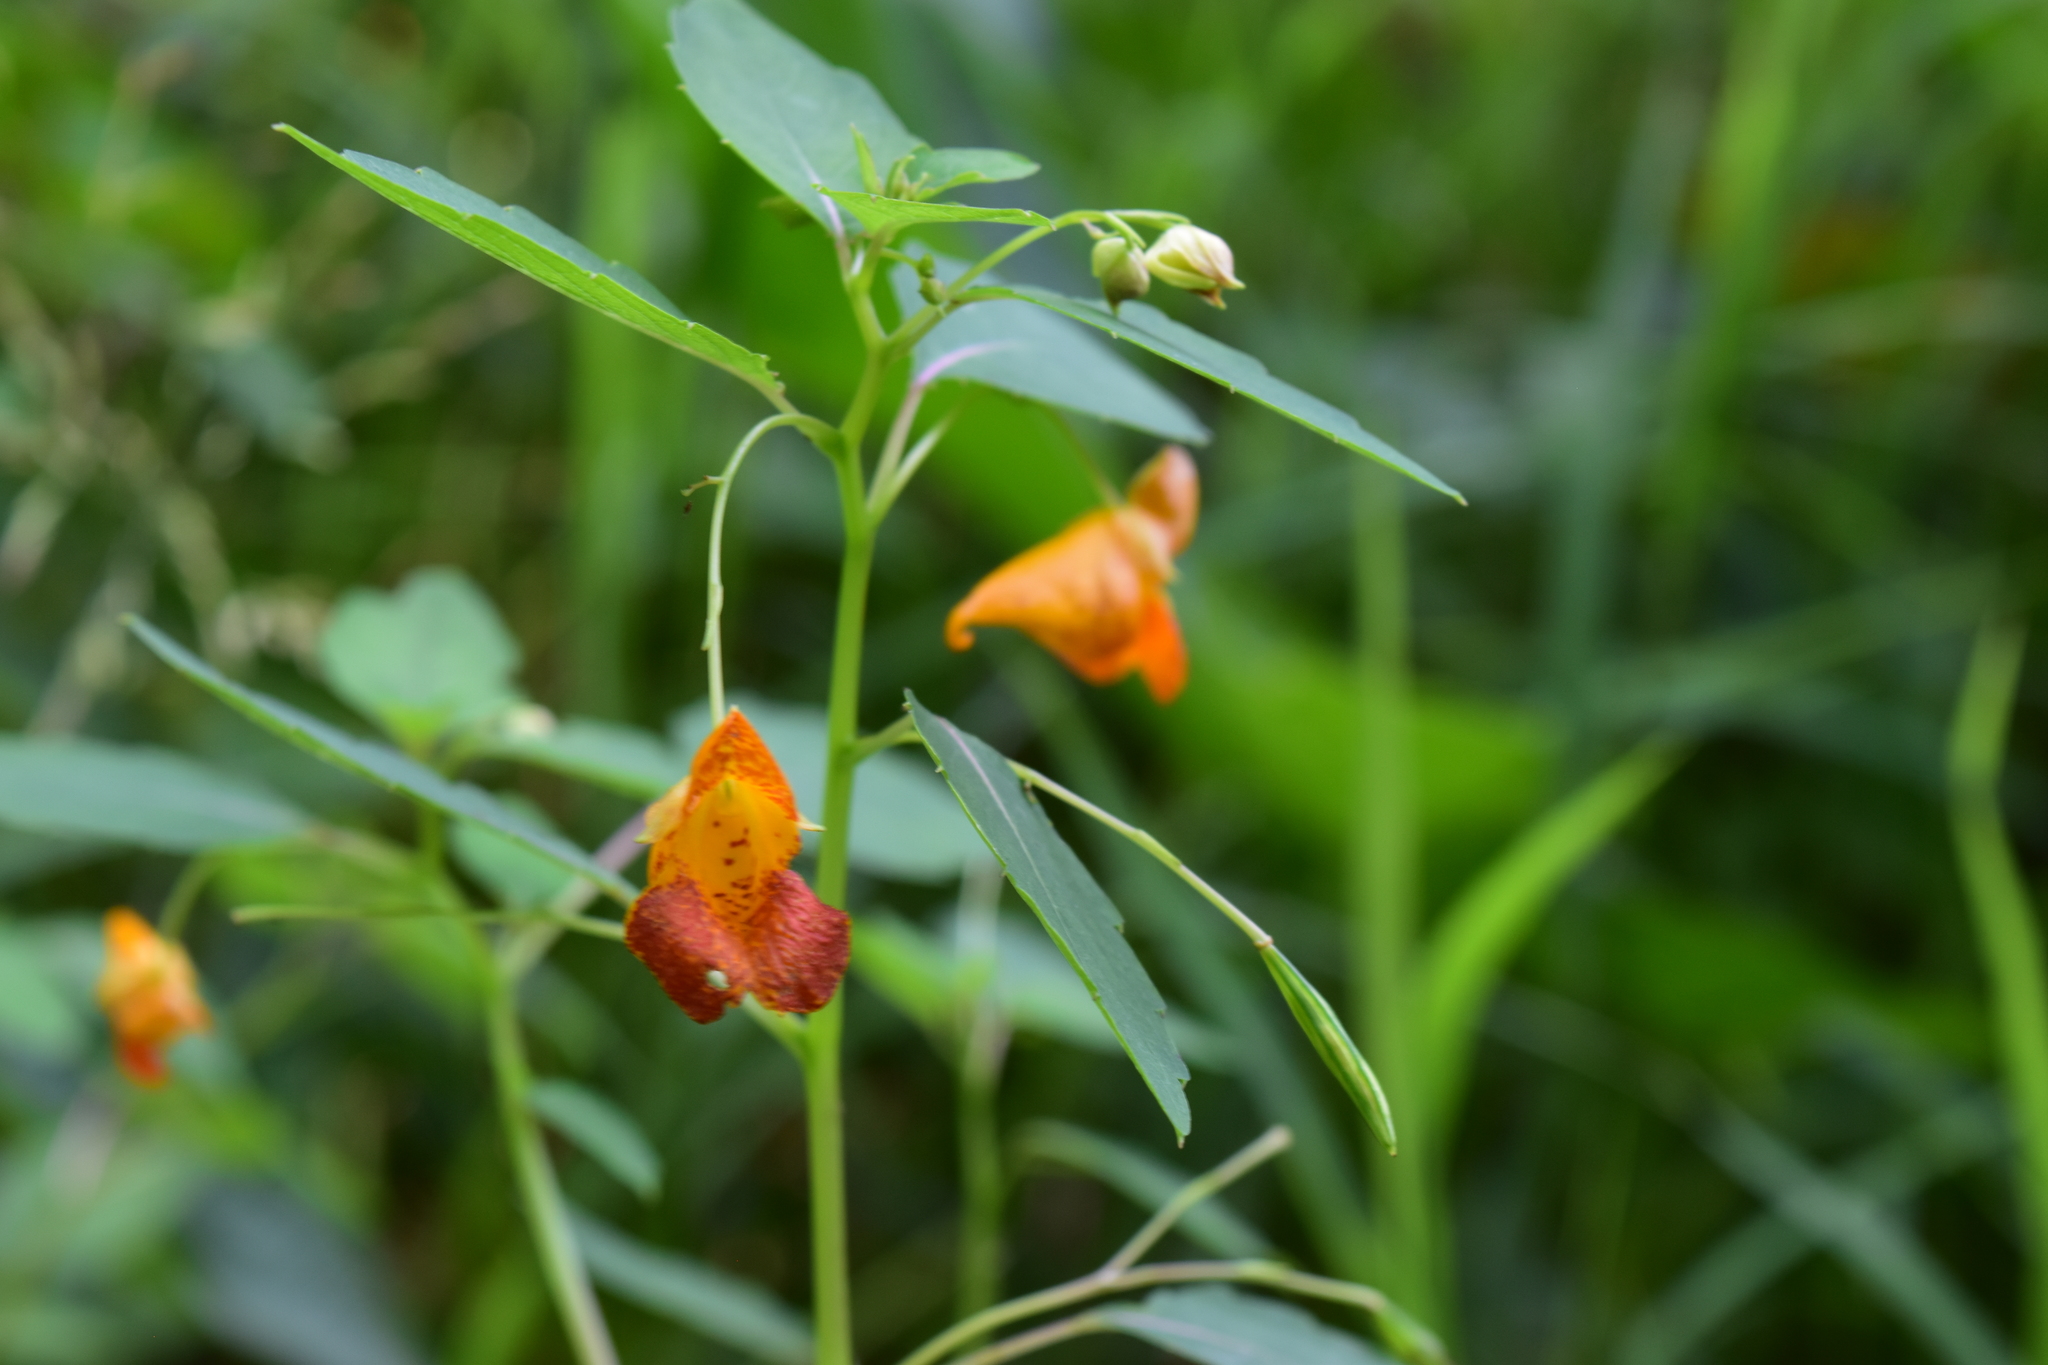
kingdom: Plantae
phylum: Tracheophyta
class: Magnoliopsida
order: Ericales
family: Balsaminaceae
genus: Impatiens
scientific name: Impatiens capensis
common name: Orange balsam
